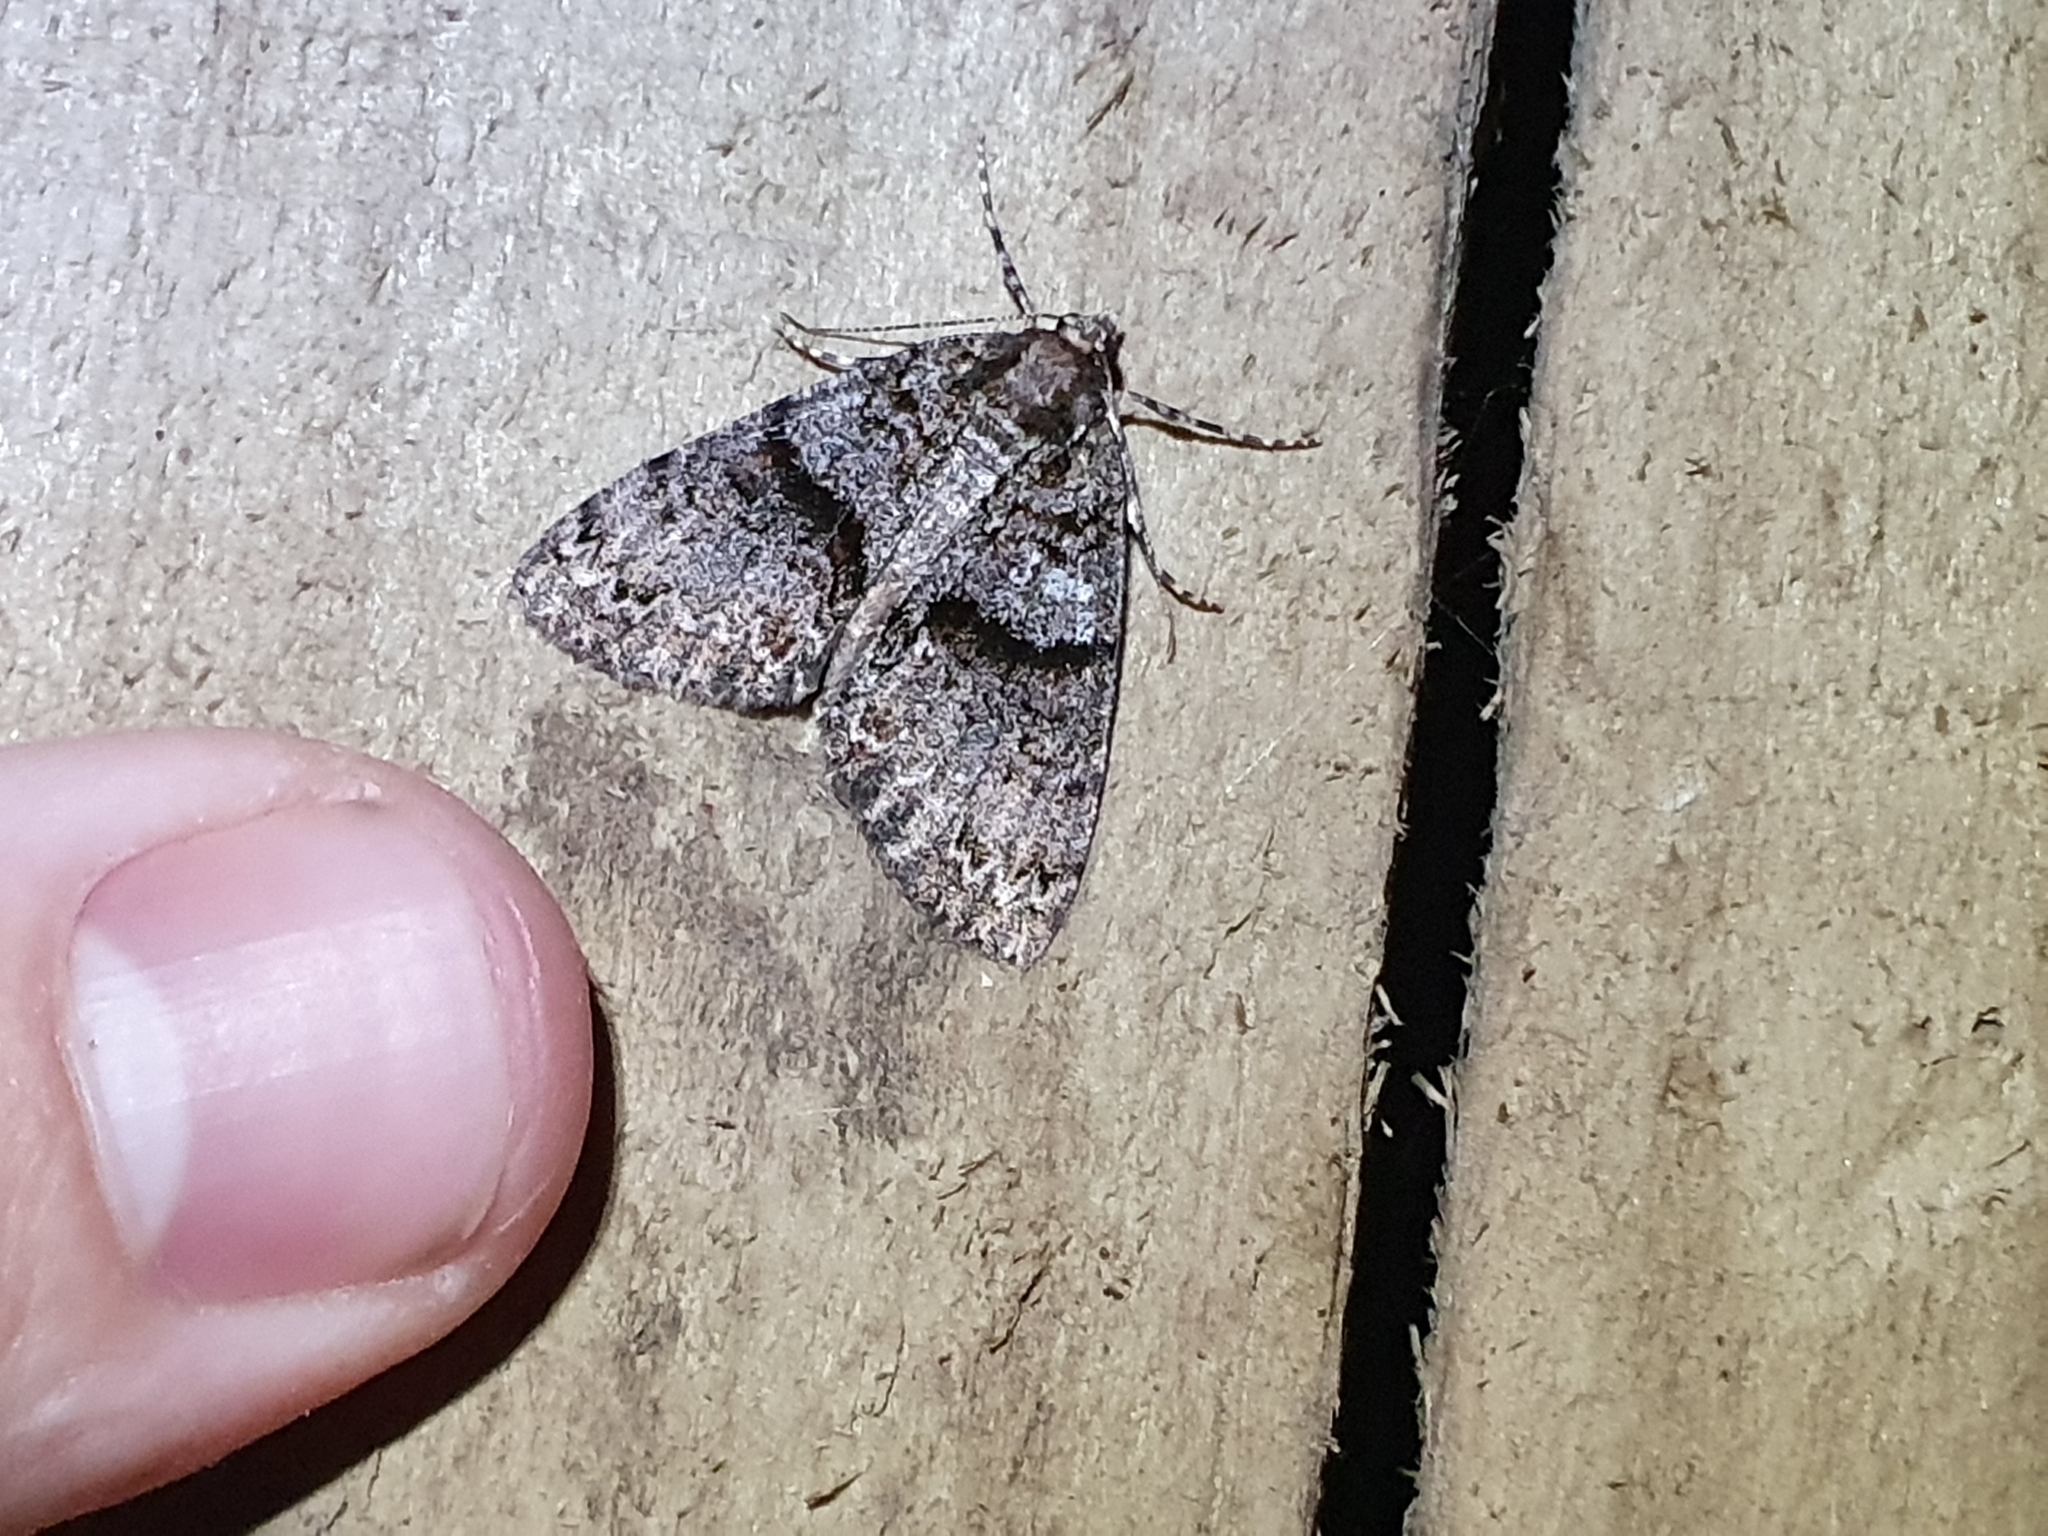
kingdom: Animalia
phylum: Arthropoda
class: Insecta
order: Lepidoptera
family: Geometridae
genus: Pseudocoremia
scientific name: Pseudocoremia suavis
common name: Common forest looper
